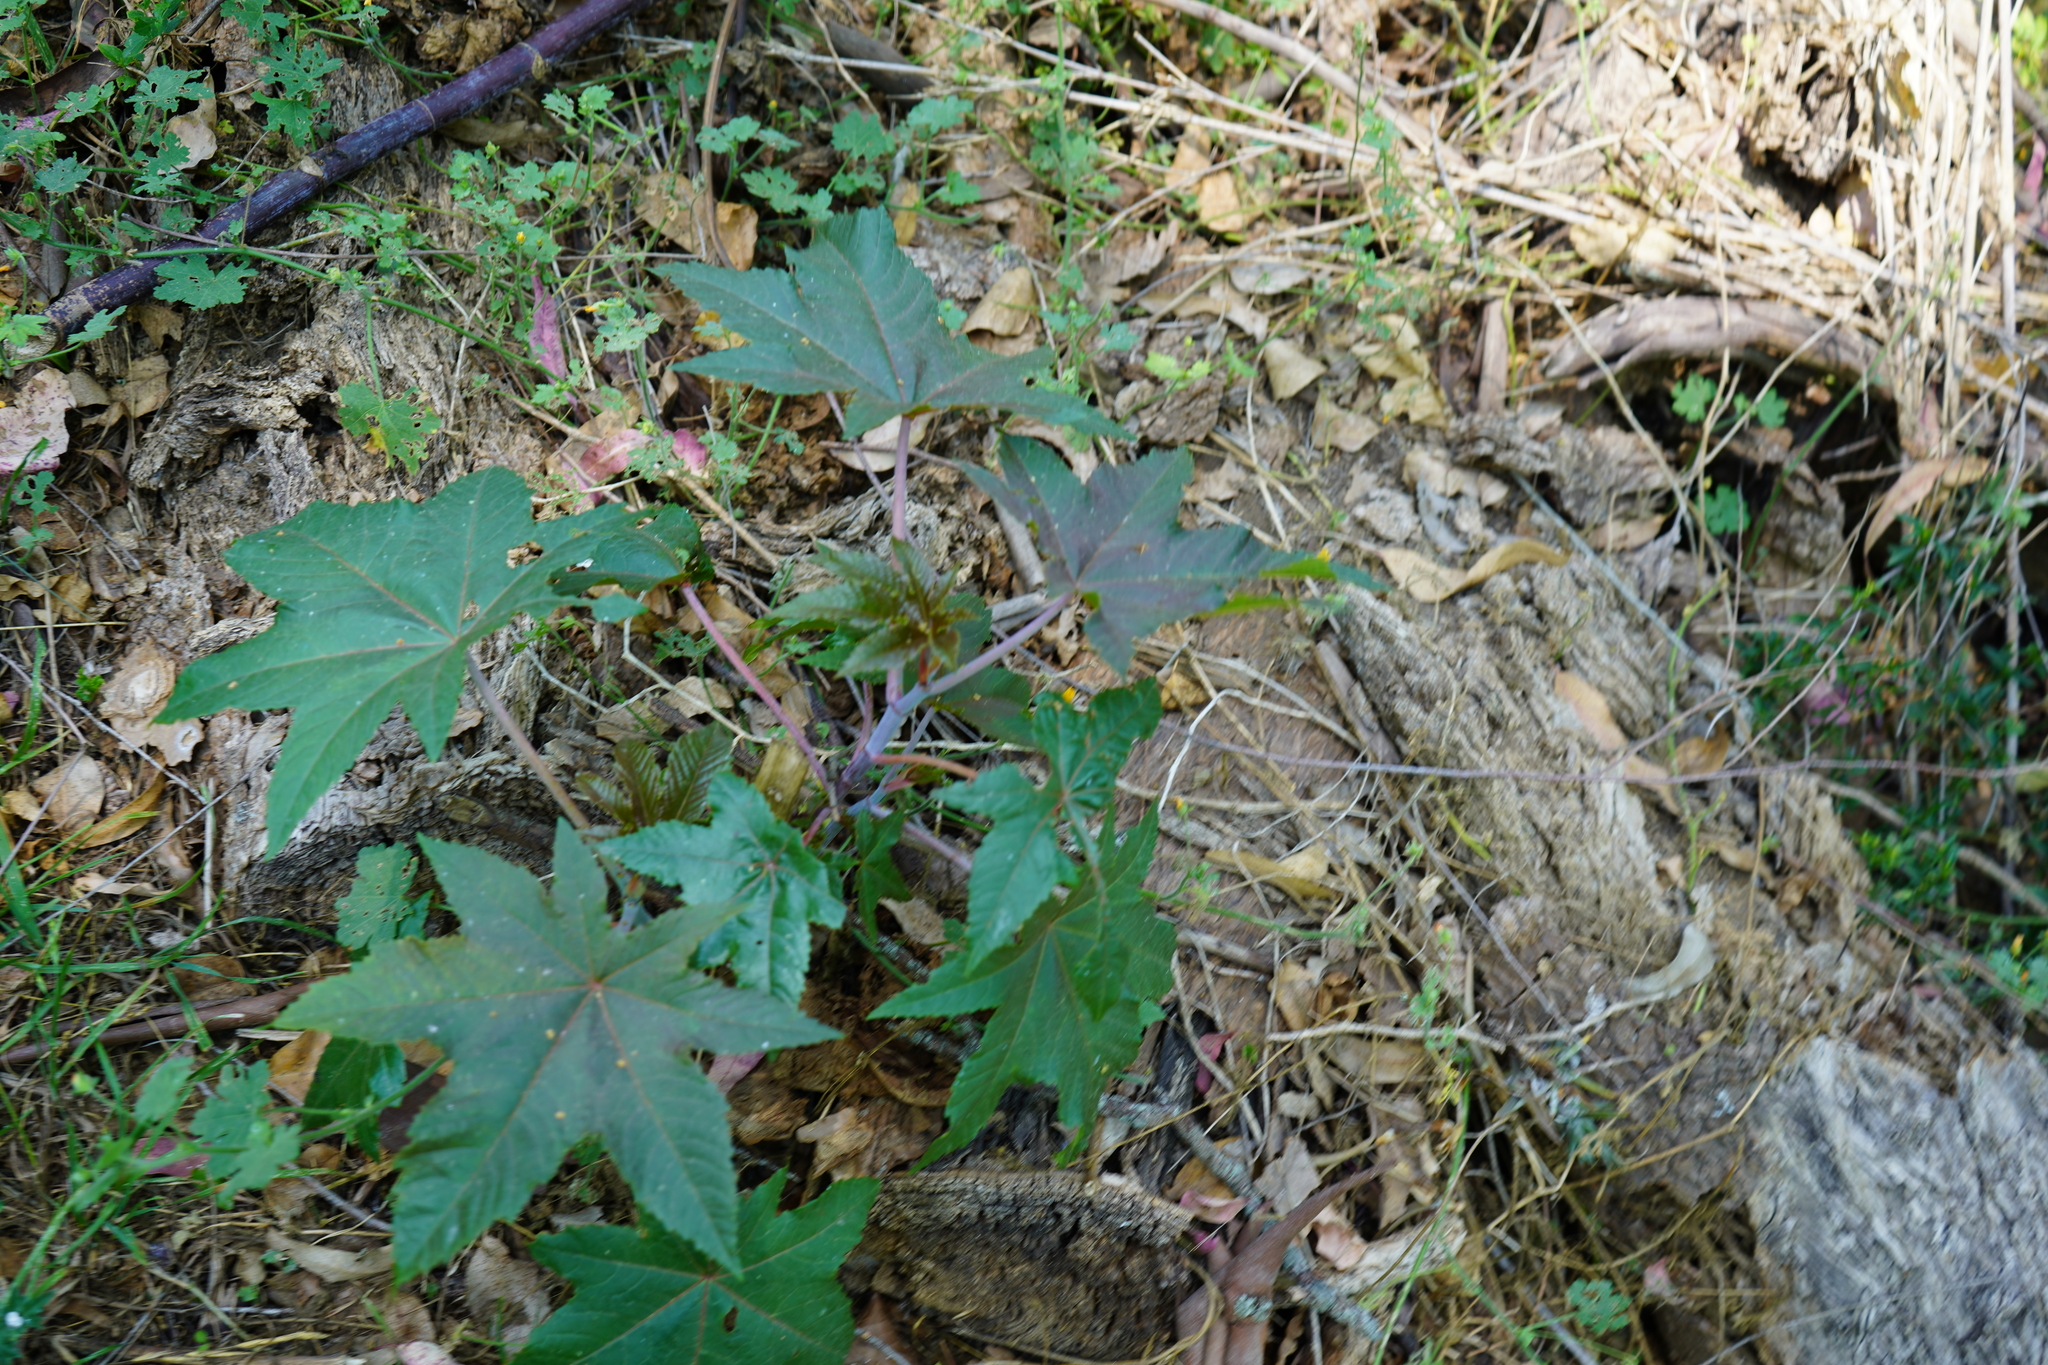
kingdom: Plantae
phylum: Tracheophyta
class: Magnoliopsida
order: Malpighiales
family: Euphorbiaceae
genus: Ricinus
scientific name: Ricinus communis
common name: Castor-oil-plant
